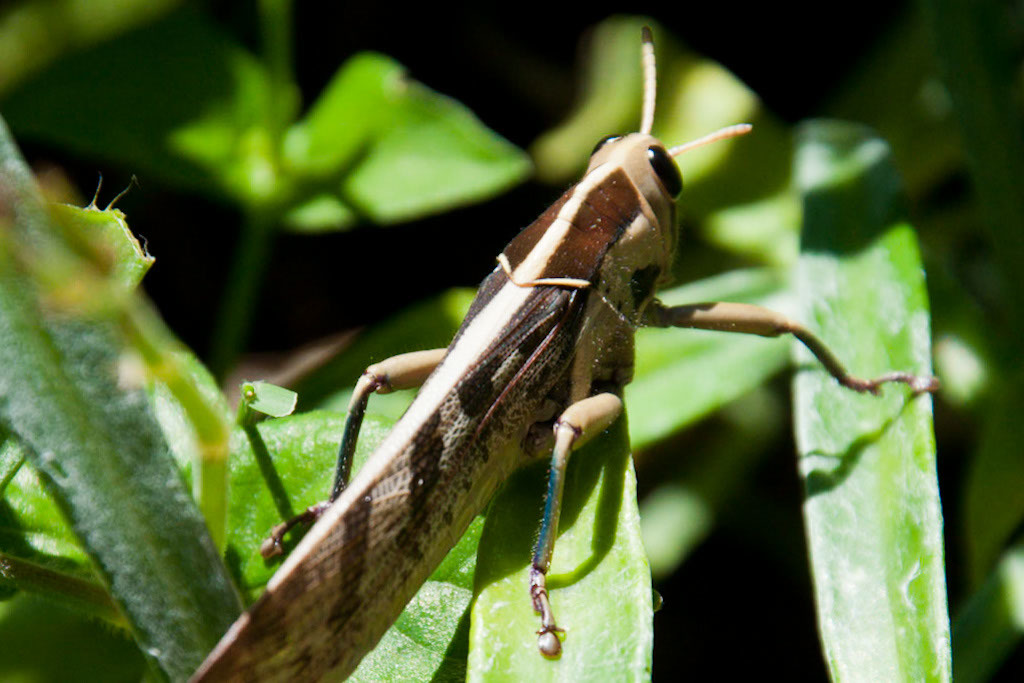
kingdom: Animalia
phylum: Arthropoda
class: Insecta
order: Orthoptera
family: Acrididae
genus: Acanthacris
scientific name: Acanthacris ruficornis
